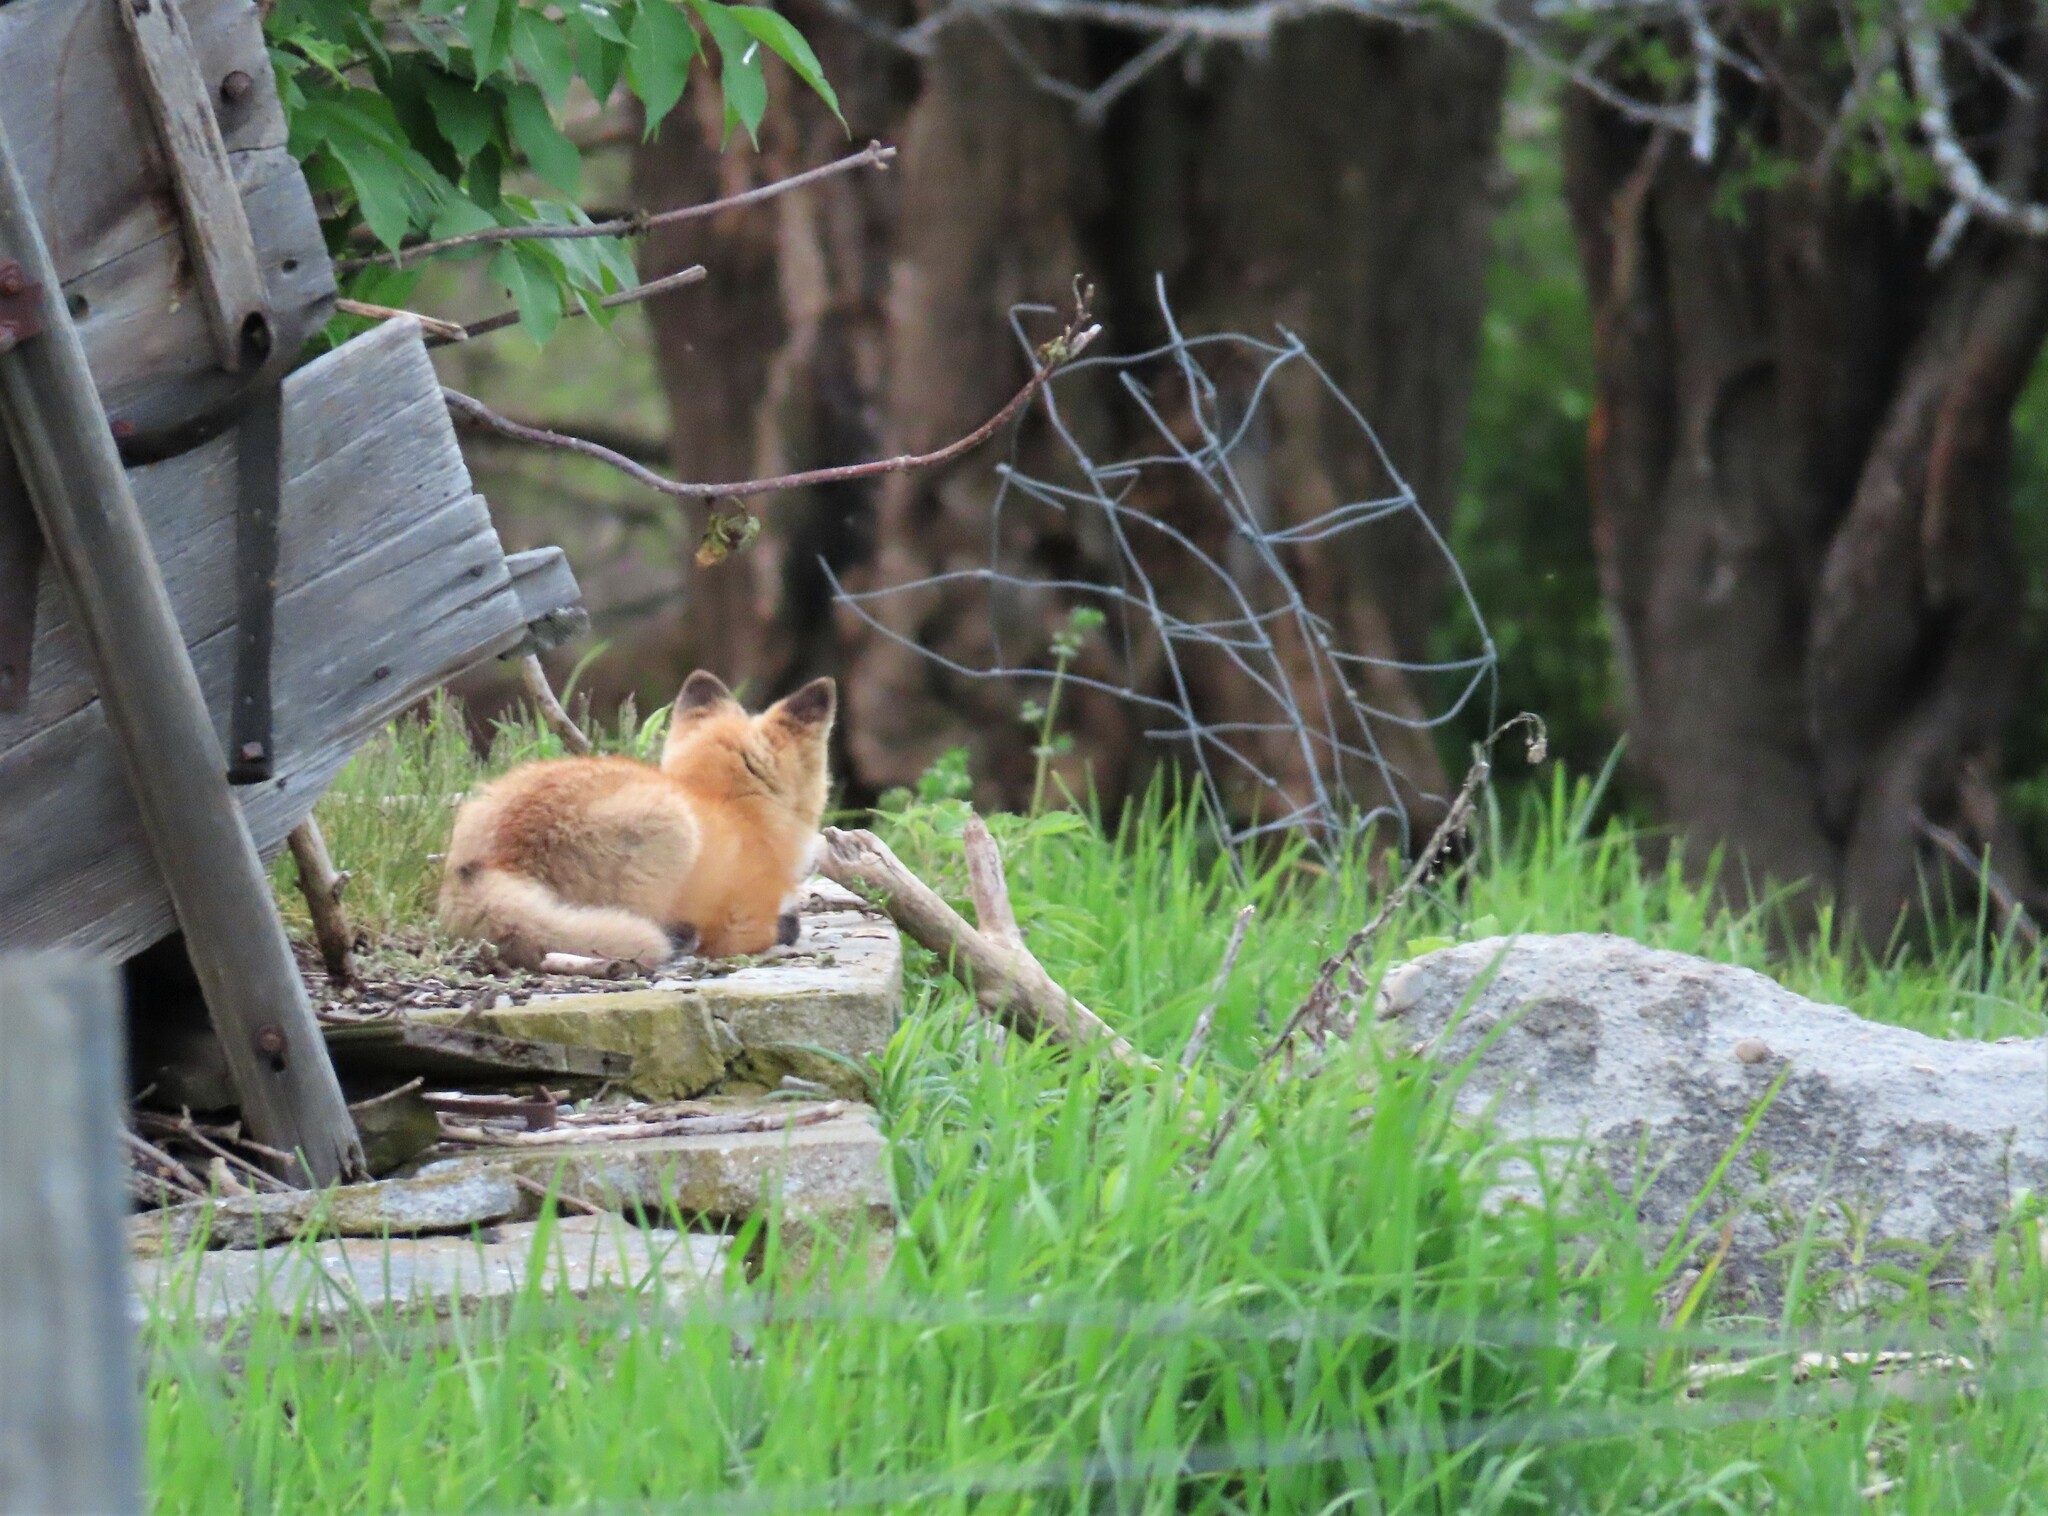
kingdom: Animalia
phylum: Chordata
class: Mammalia
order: Carnivora
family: Canidae
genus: Vulpes
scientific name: Vulpes vulpes
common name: Red fox
